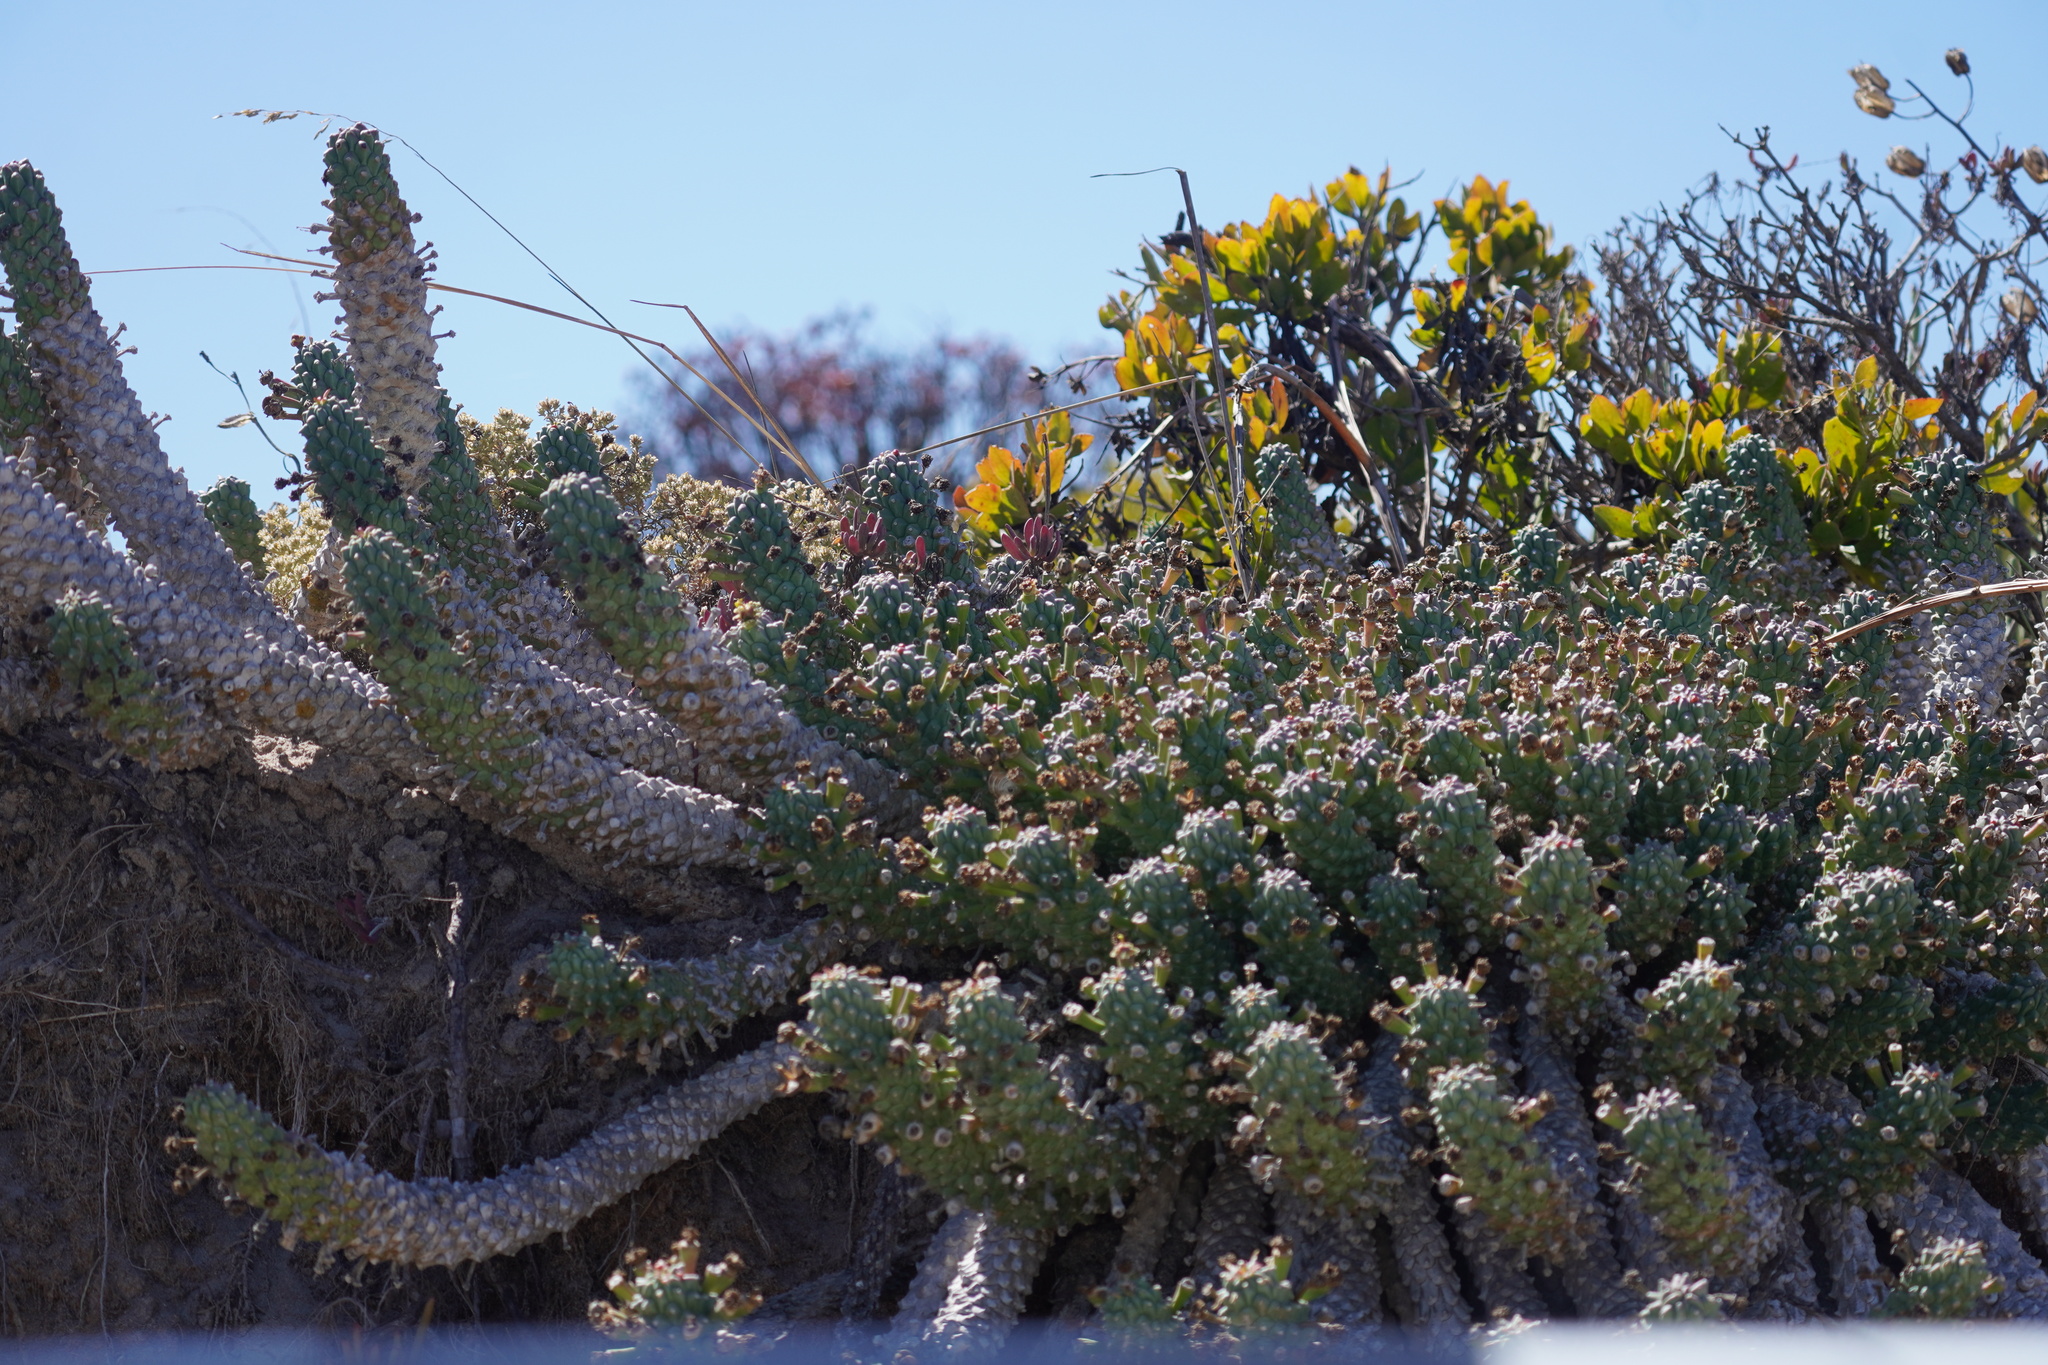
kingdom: Plantae
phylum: Tracheophyta
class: Magnoliopsida
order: Malpighiales
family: Euphorbiaceae
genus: Euphorbia
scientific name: Euphorbia caput-medusae
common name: Medusa's-head
